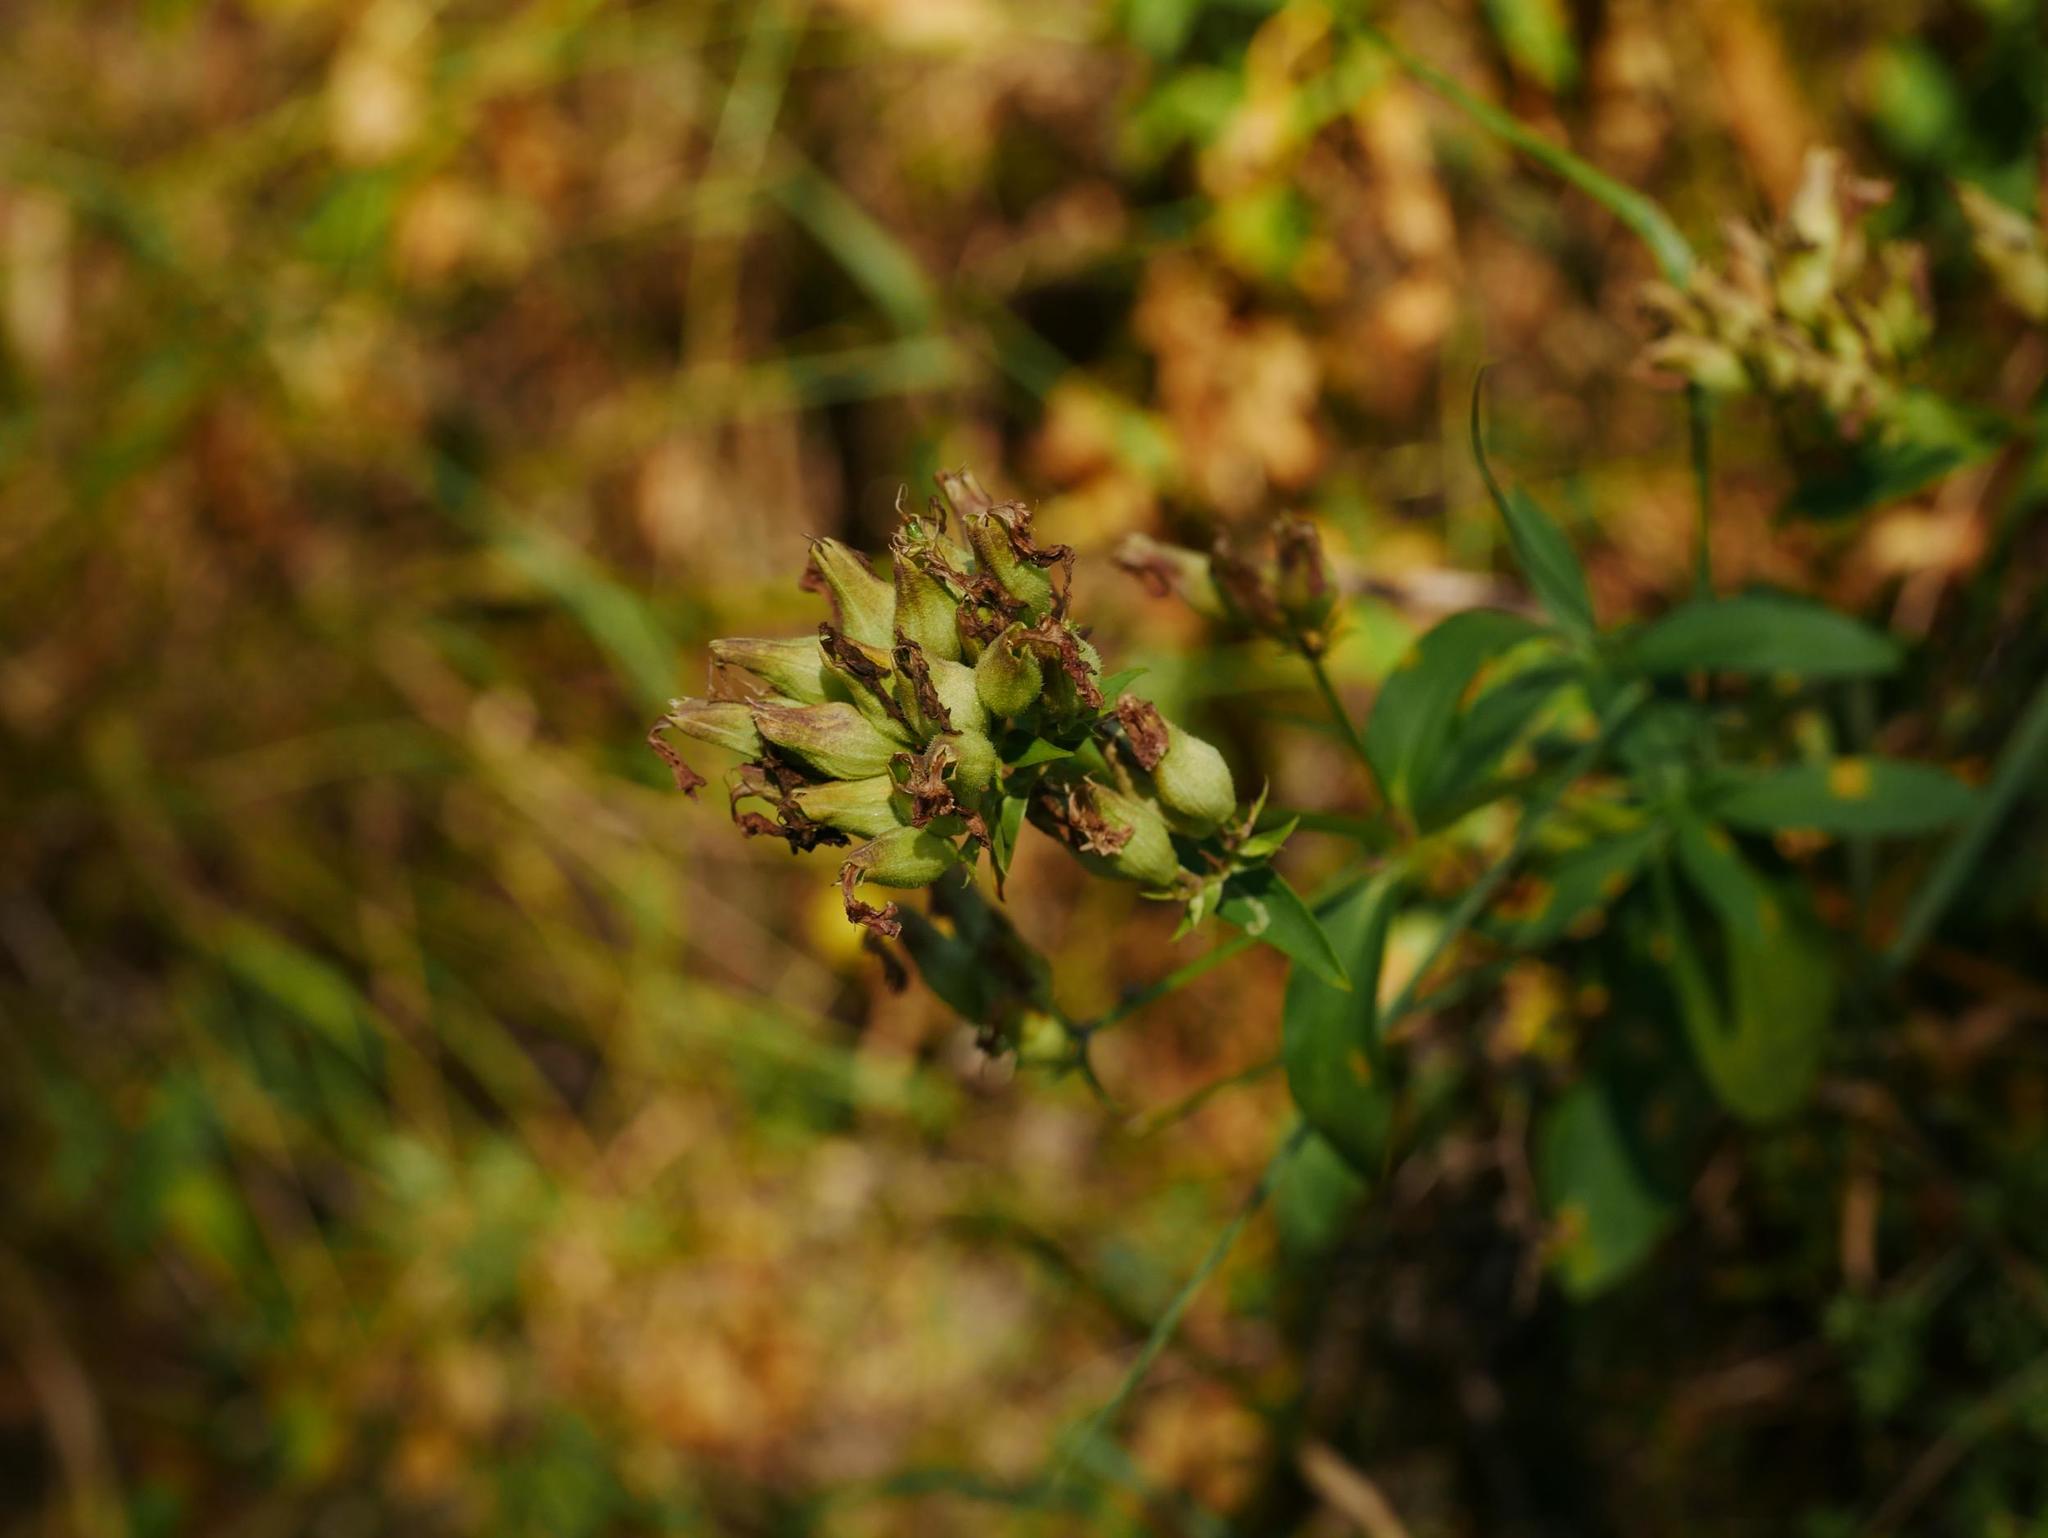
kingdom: Plantae
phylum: Tracheophyta
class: Magnoliopsida
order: Caryophyllales
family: Caryophyllaceae
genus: Saponaria
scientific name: Saponaria officinalis
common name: Soapwort
